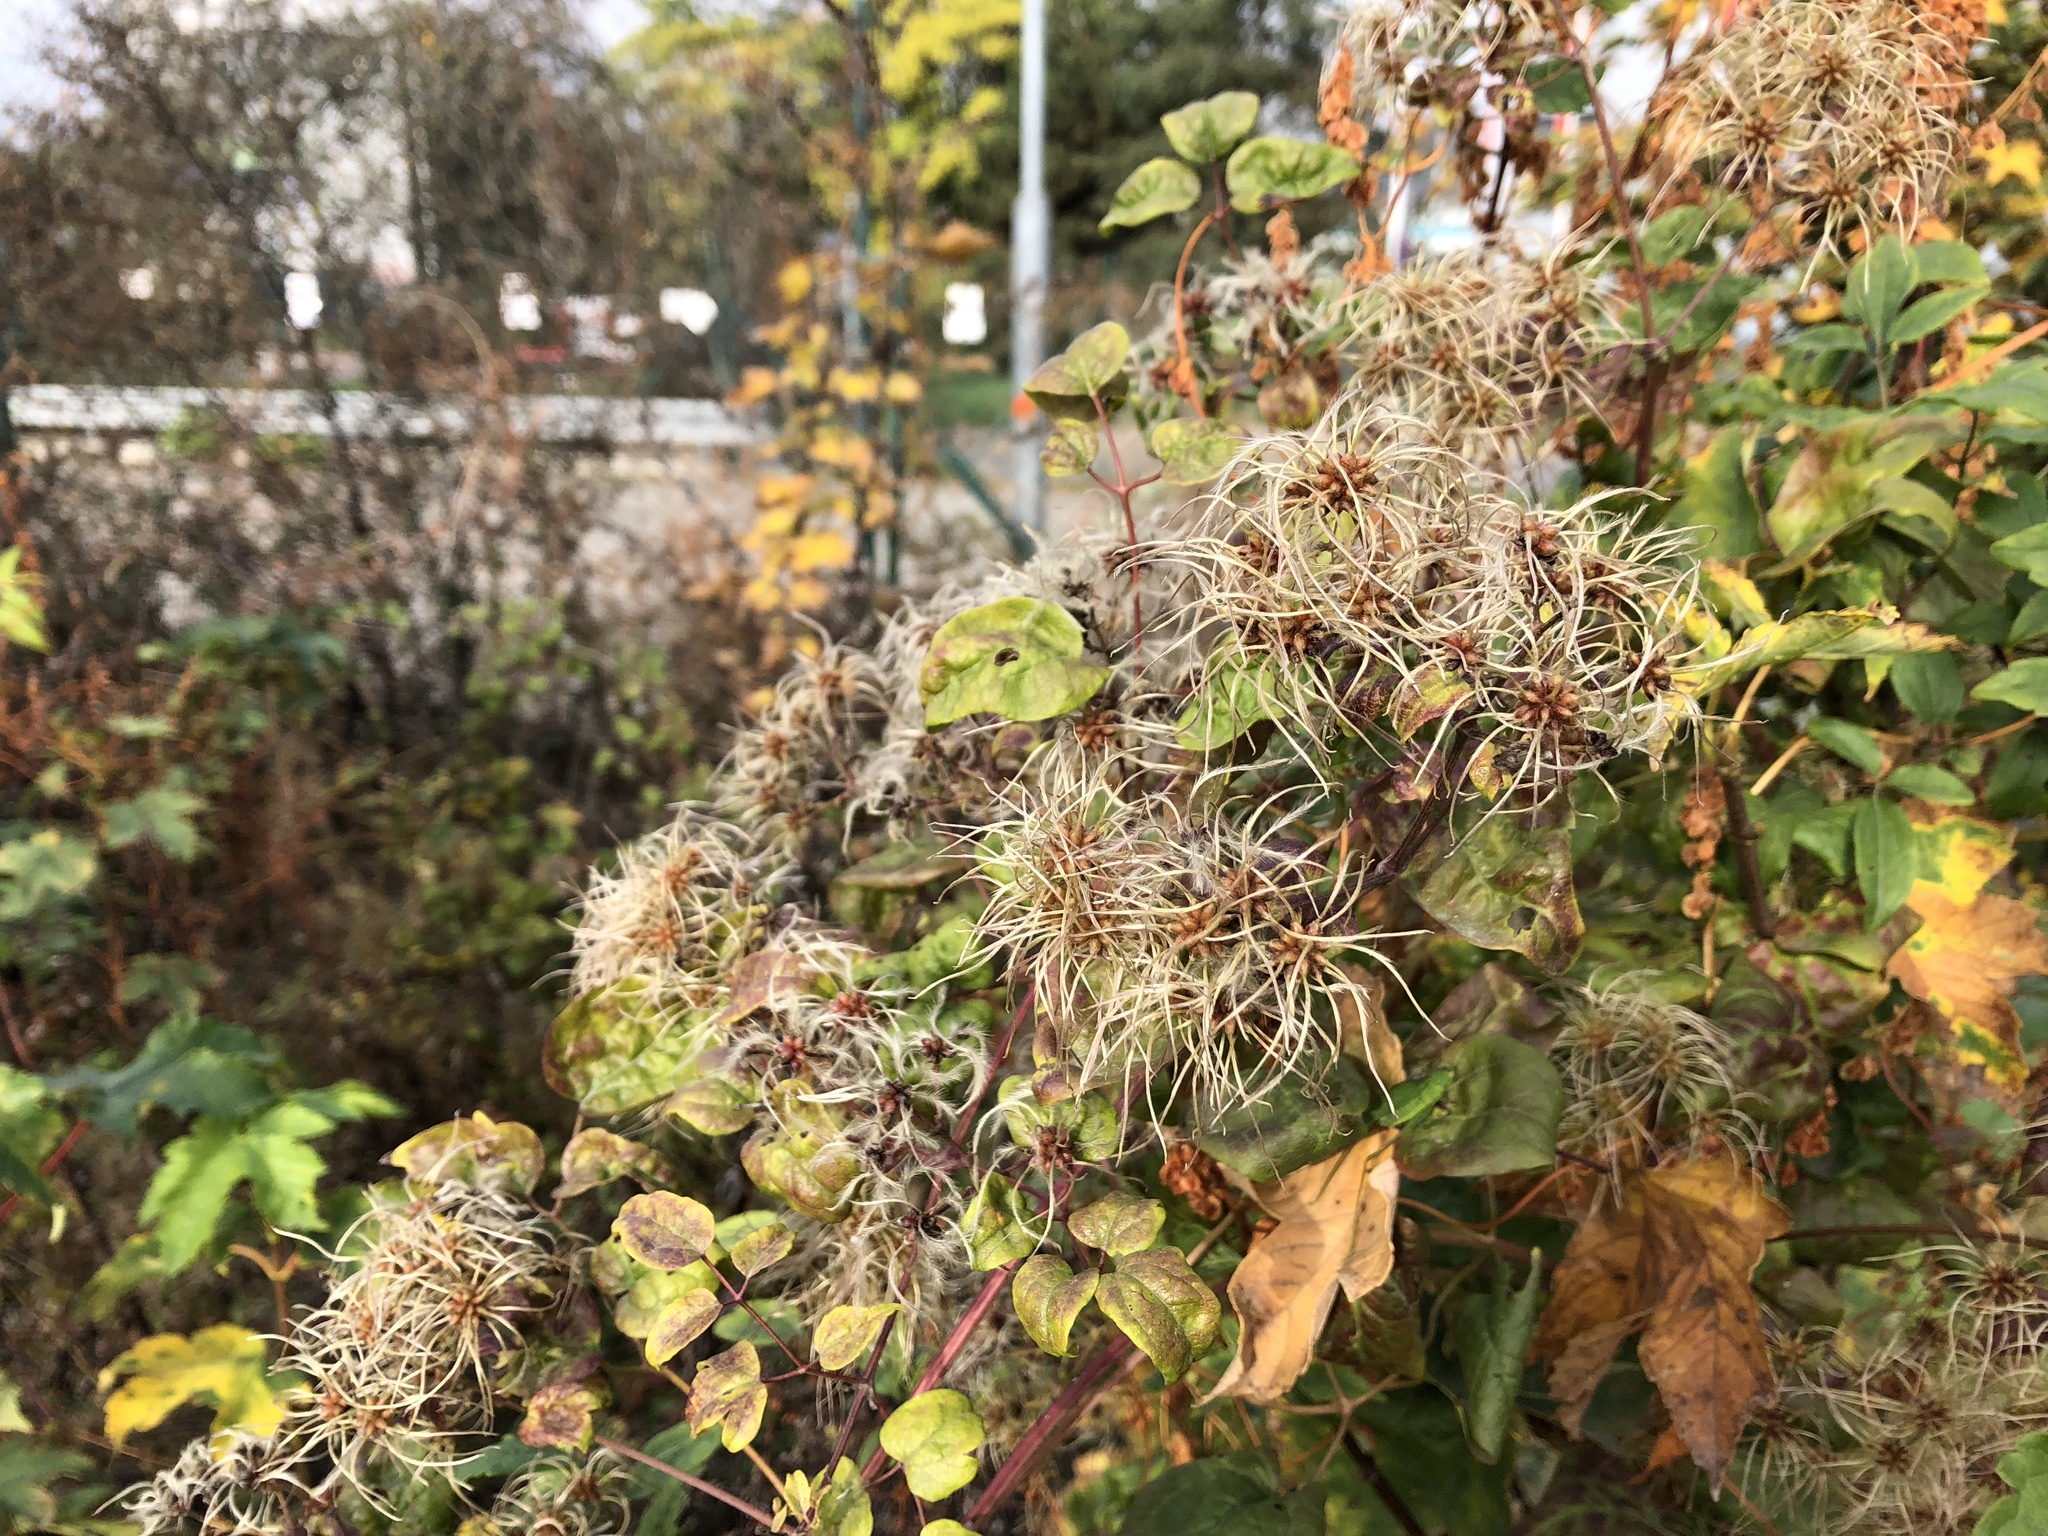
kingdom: Plantae
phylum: Tracheophyta
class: Magnoliopsida
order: Ranunculales
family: Ranunculaceae
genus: Clematis
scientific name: Clematis vitalba
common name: Evergreen clematis
